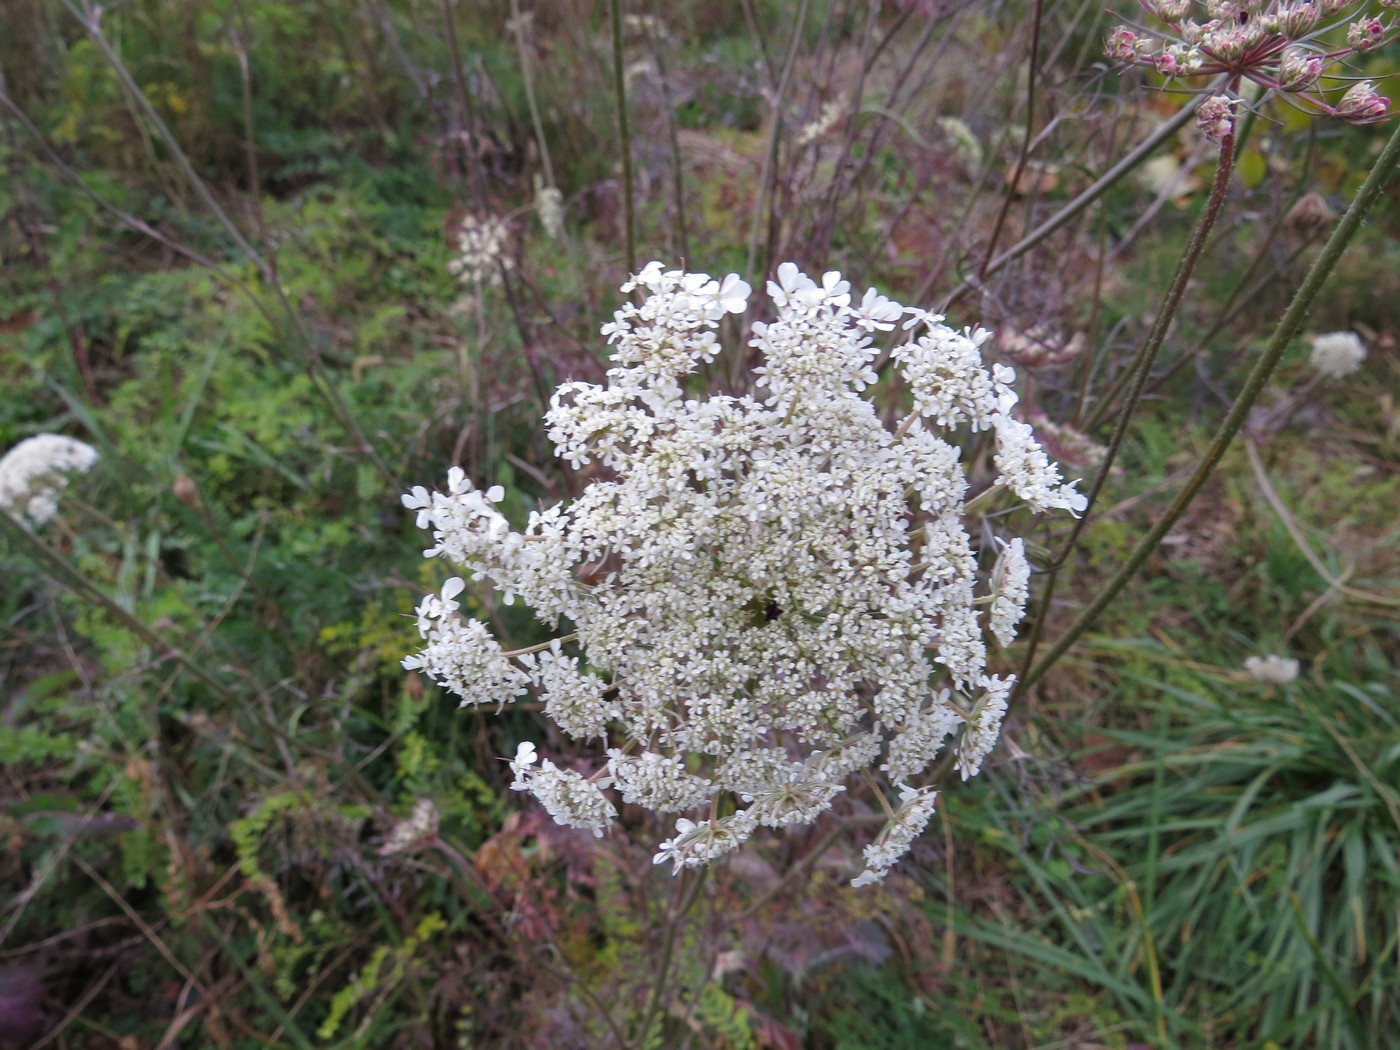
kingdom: Plantae
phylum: Tracheophyta
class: Magnoliopsida
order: Apiales
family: Apiaceae
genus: Daucus
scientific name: Daucus carota
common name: Wild carrot
